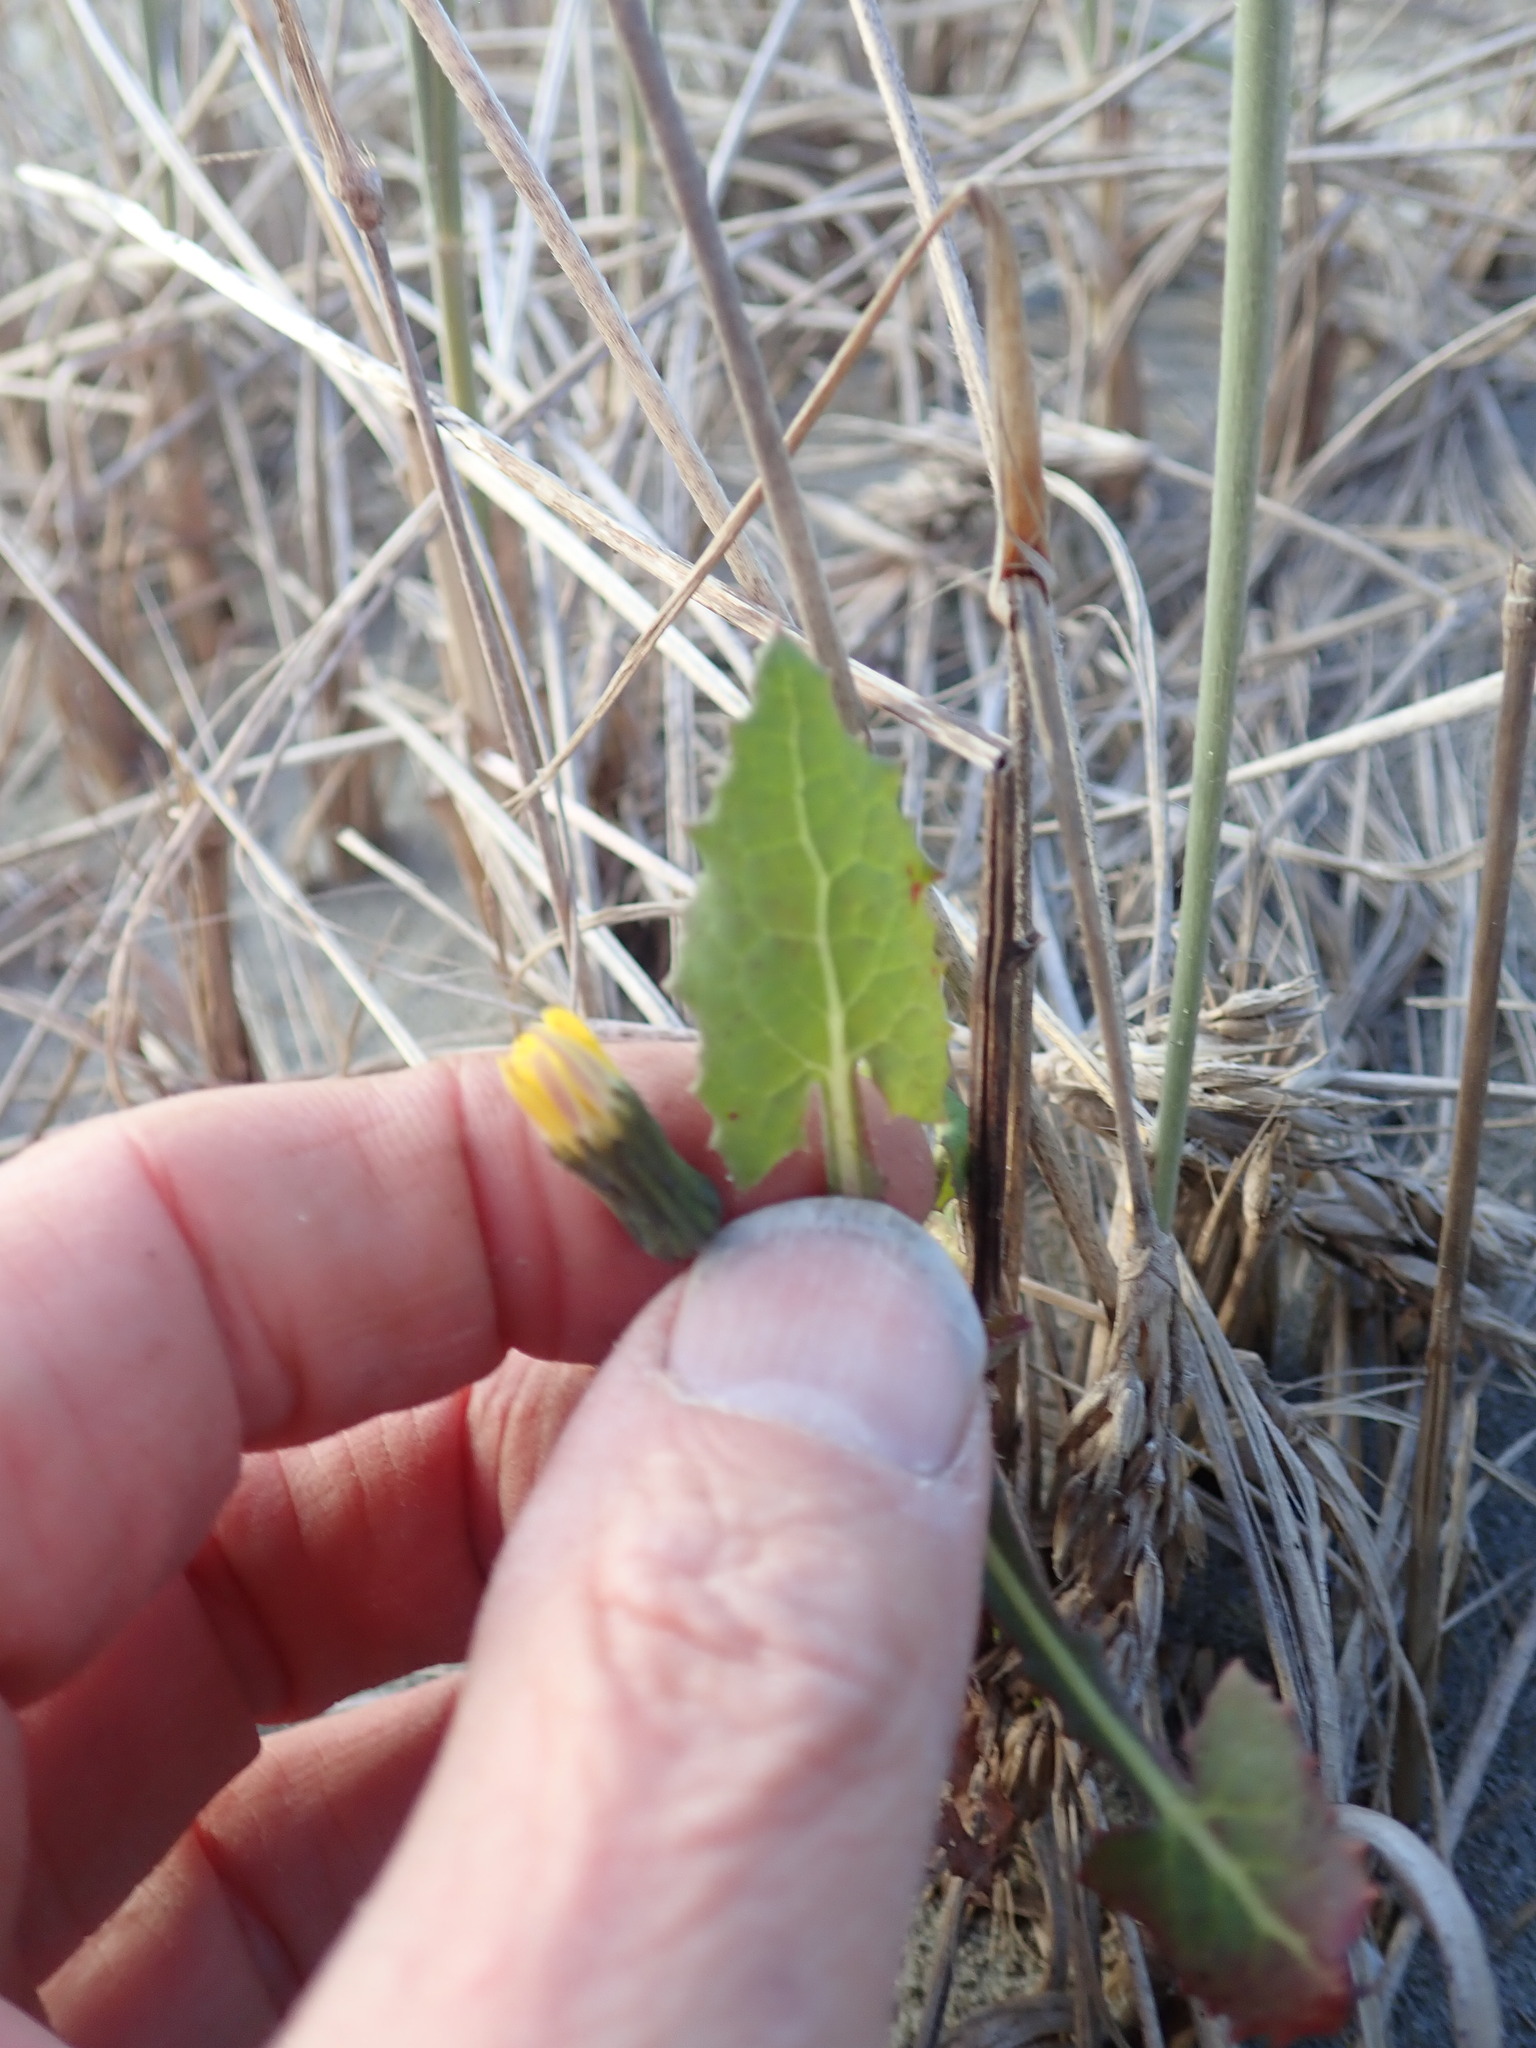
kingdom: Plantae
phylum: Tracheophyta
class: Magnoliopsida
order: Asterales
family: Asteraceae
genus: Sonchus
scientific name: Sonchus oleraceus
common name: Common sowthistle
